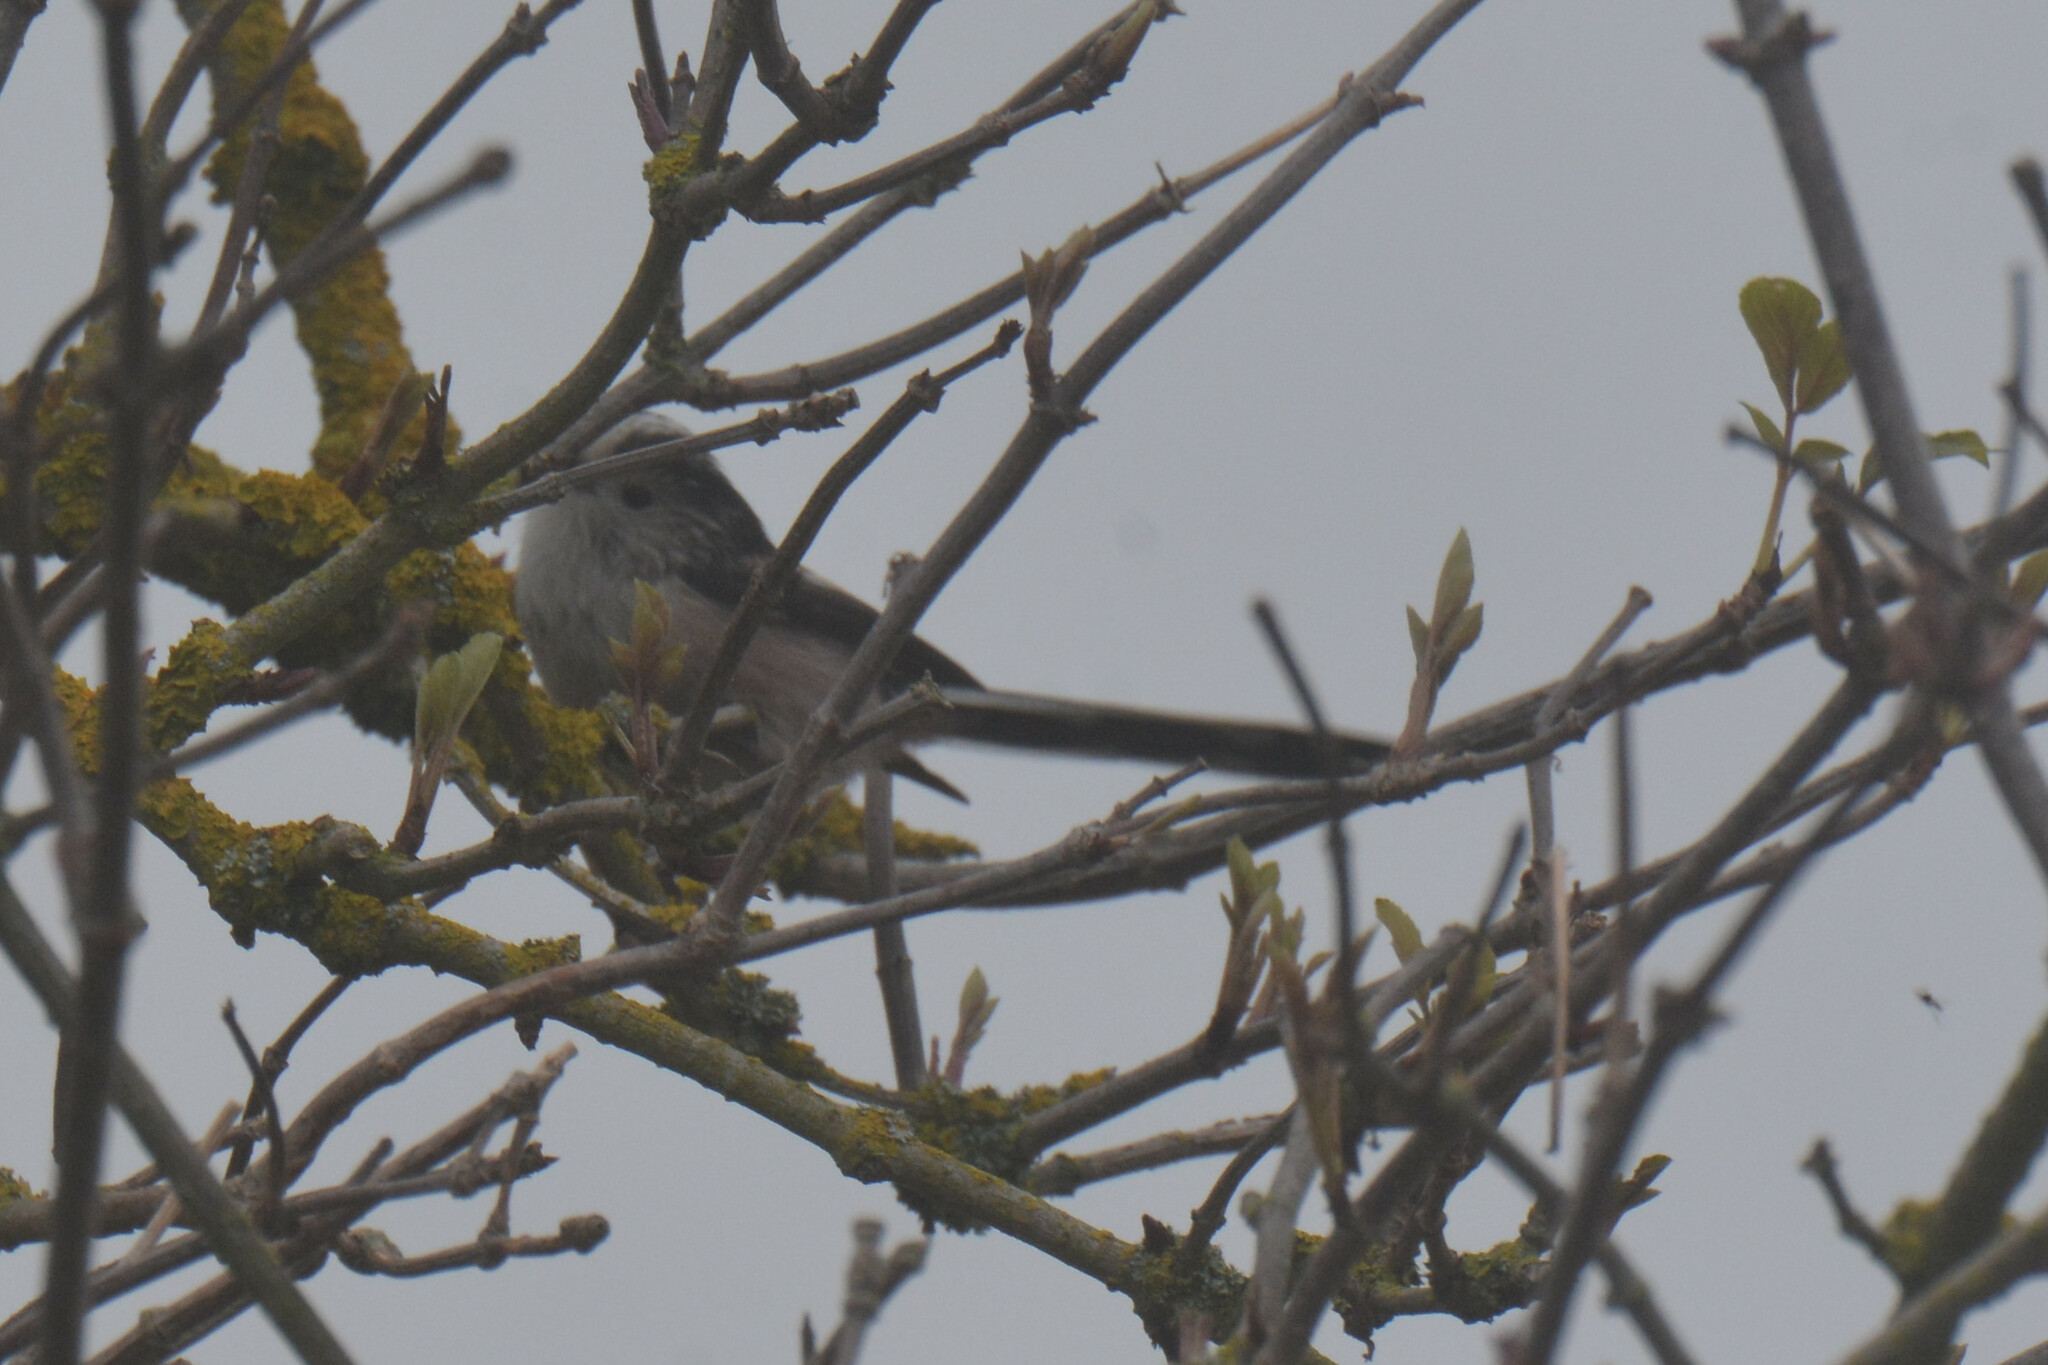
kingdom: Animalia
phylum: Chordata
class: Aves
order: Passeriformes
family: Aegithalidae
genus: Aegithalos
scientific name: Aegithalos caudatus
